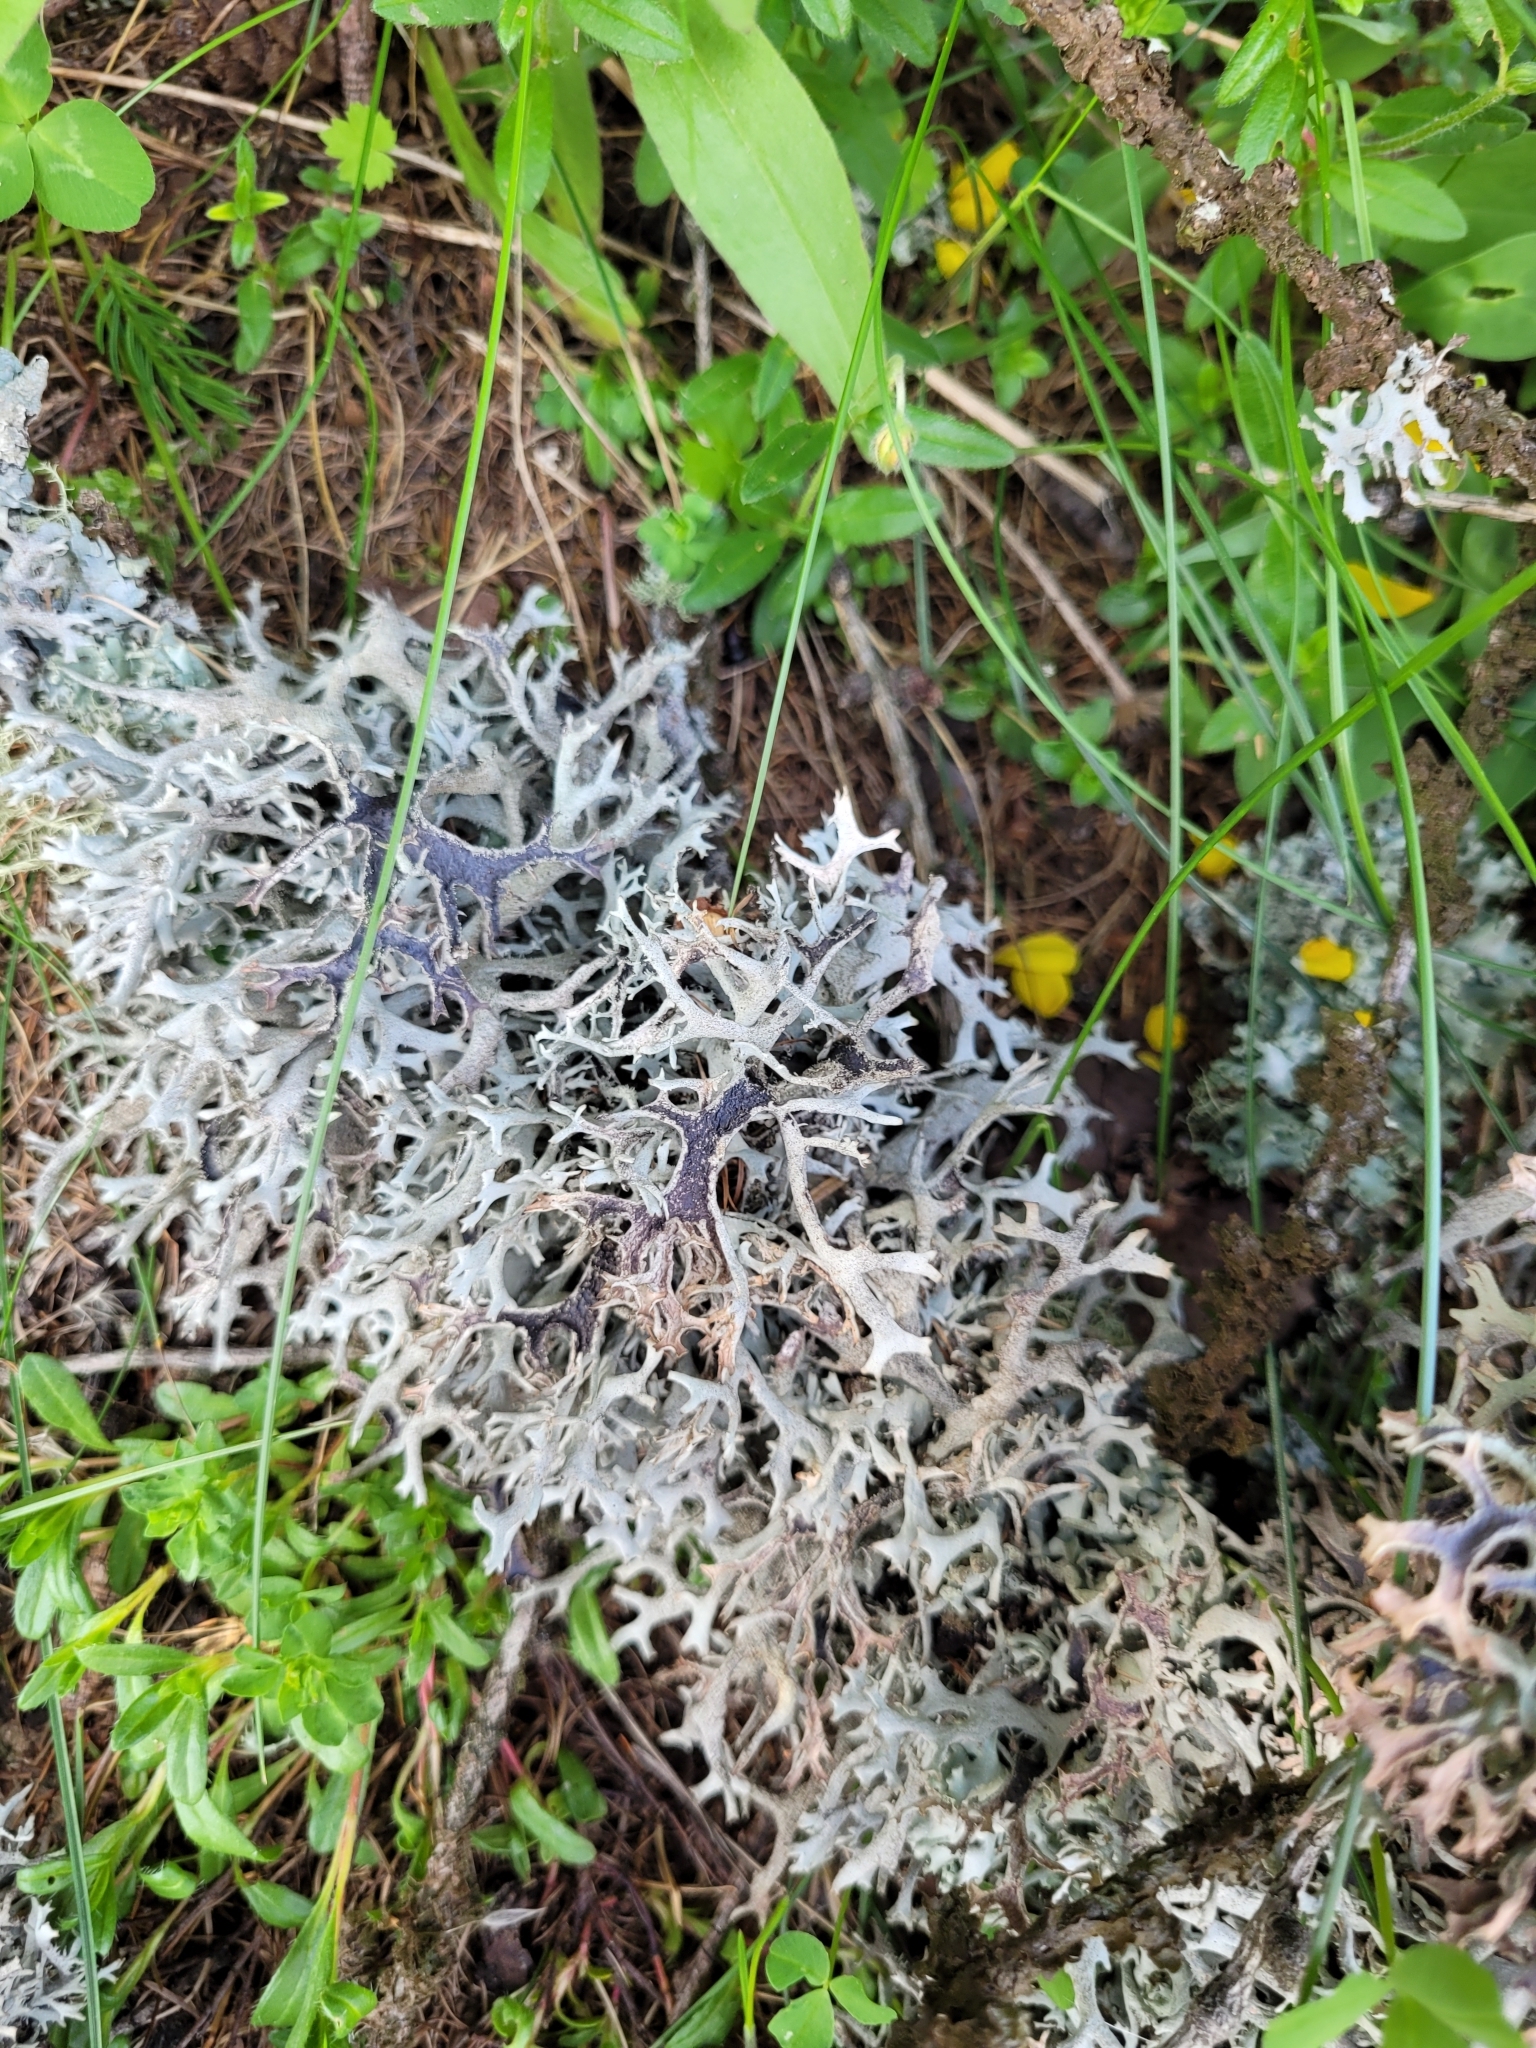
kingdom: Fungi
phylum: Ascomycota
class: Lecanoromycetes
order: Lecanorales
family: Parmeliaceae
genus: Pseudevernia
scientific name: Pseudevernia furfuracea
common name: Tree moss
